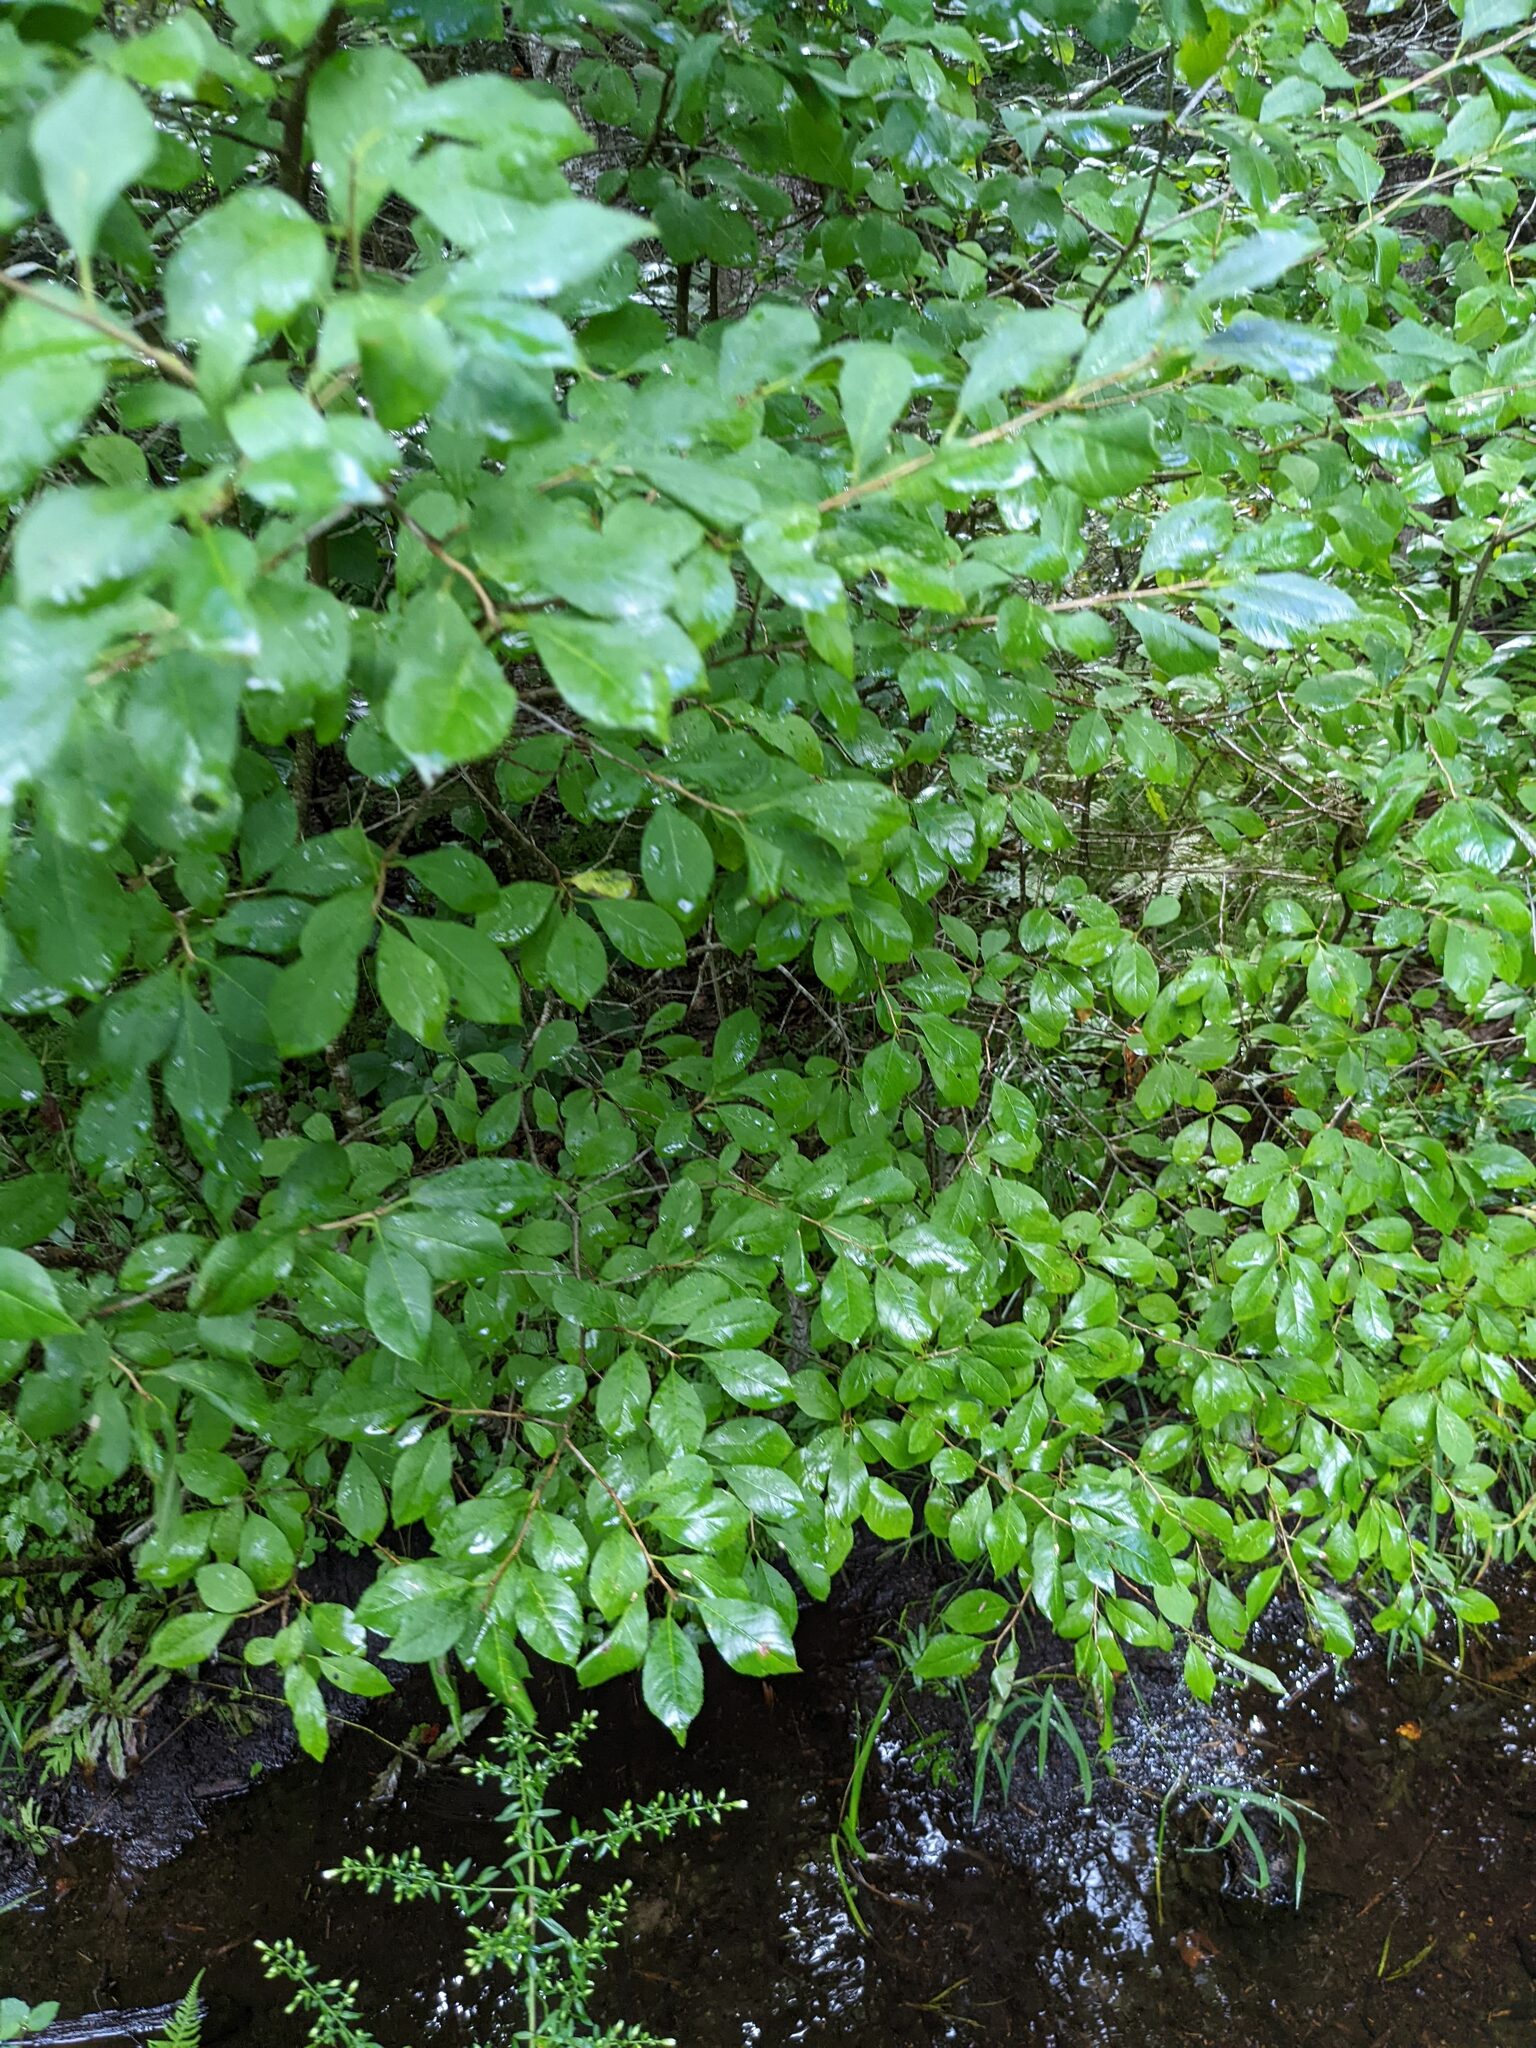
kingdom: Plantae
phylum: Tracheophyta
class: Magnoliopsida
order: Celastrales
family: Celastraceae
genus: Euonymus
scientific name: Euonymus alatus
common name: Winged euonymus
